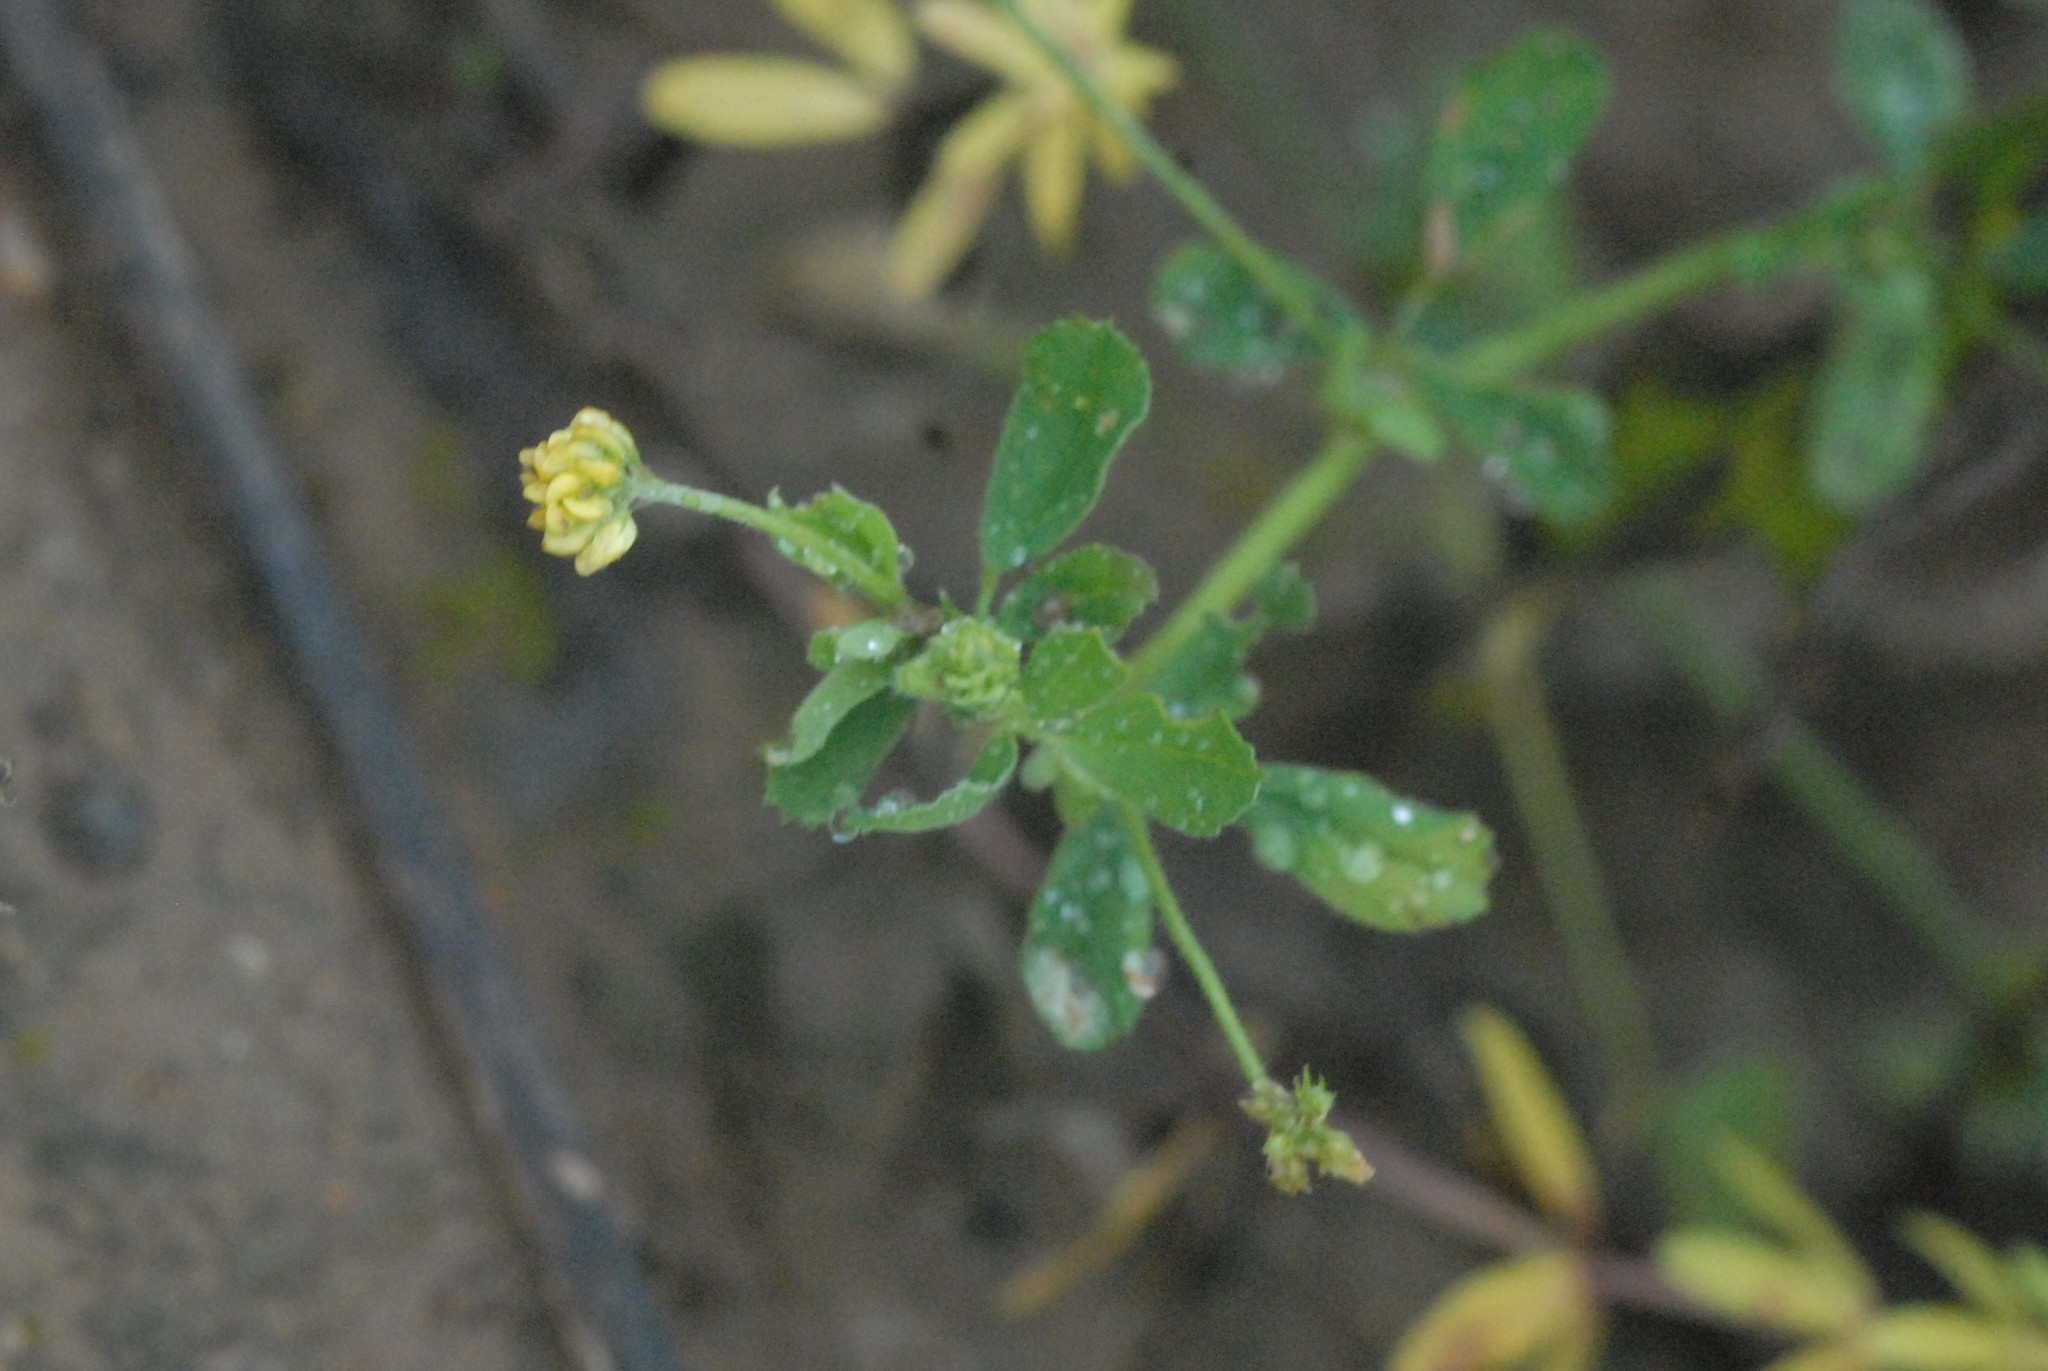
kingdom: Plantae
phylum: Tracheophyta
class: Magnoliopsida
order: Fabales
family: Fabaceae
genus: Medicago
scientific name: Medicago lupulina
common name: Black medick
